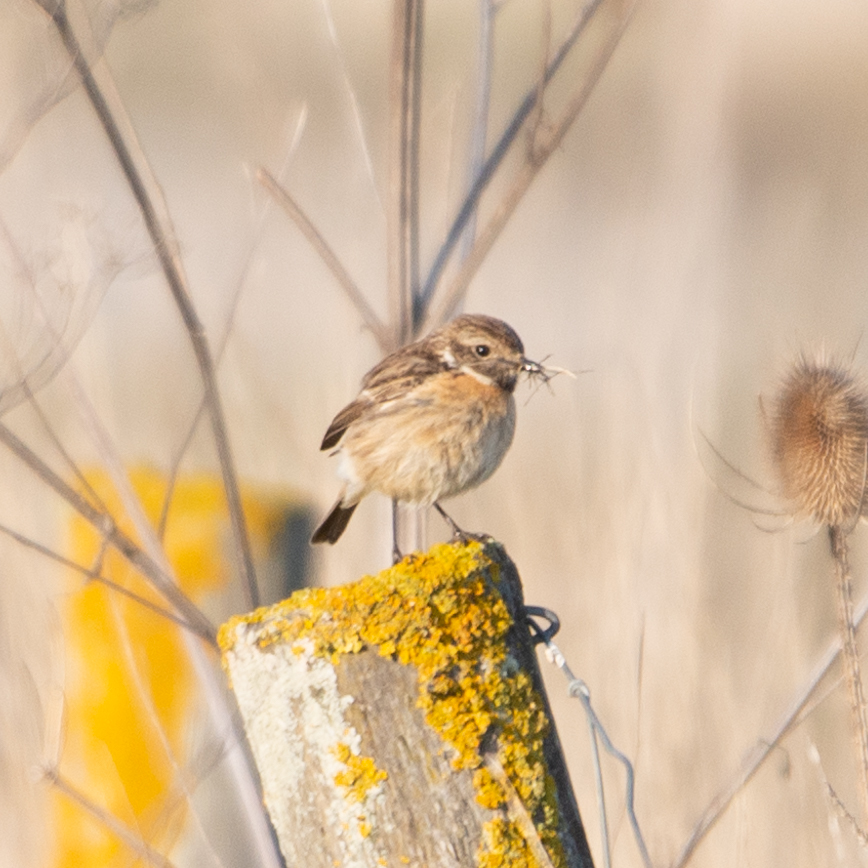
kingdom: Animalia
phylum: Chordata
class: Aves
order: Passeriformes
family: Muscicapidae
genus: Saxicola
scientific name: Saxicola rubicola
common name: European stonechat
